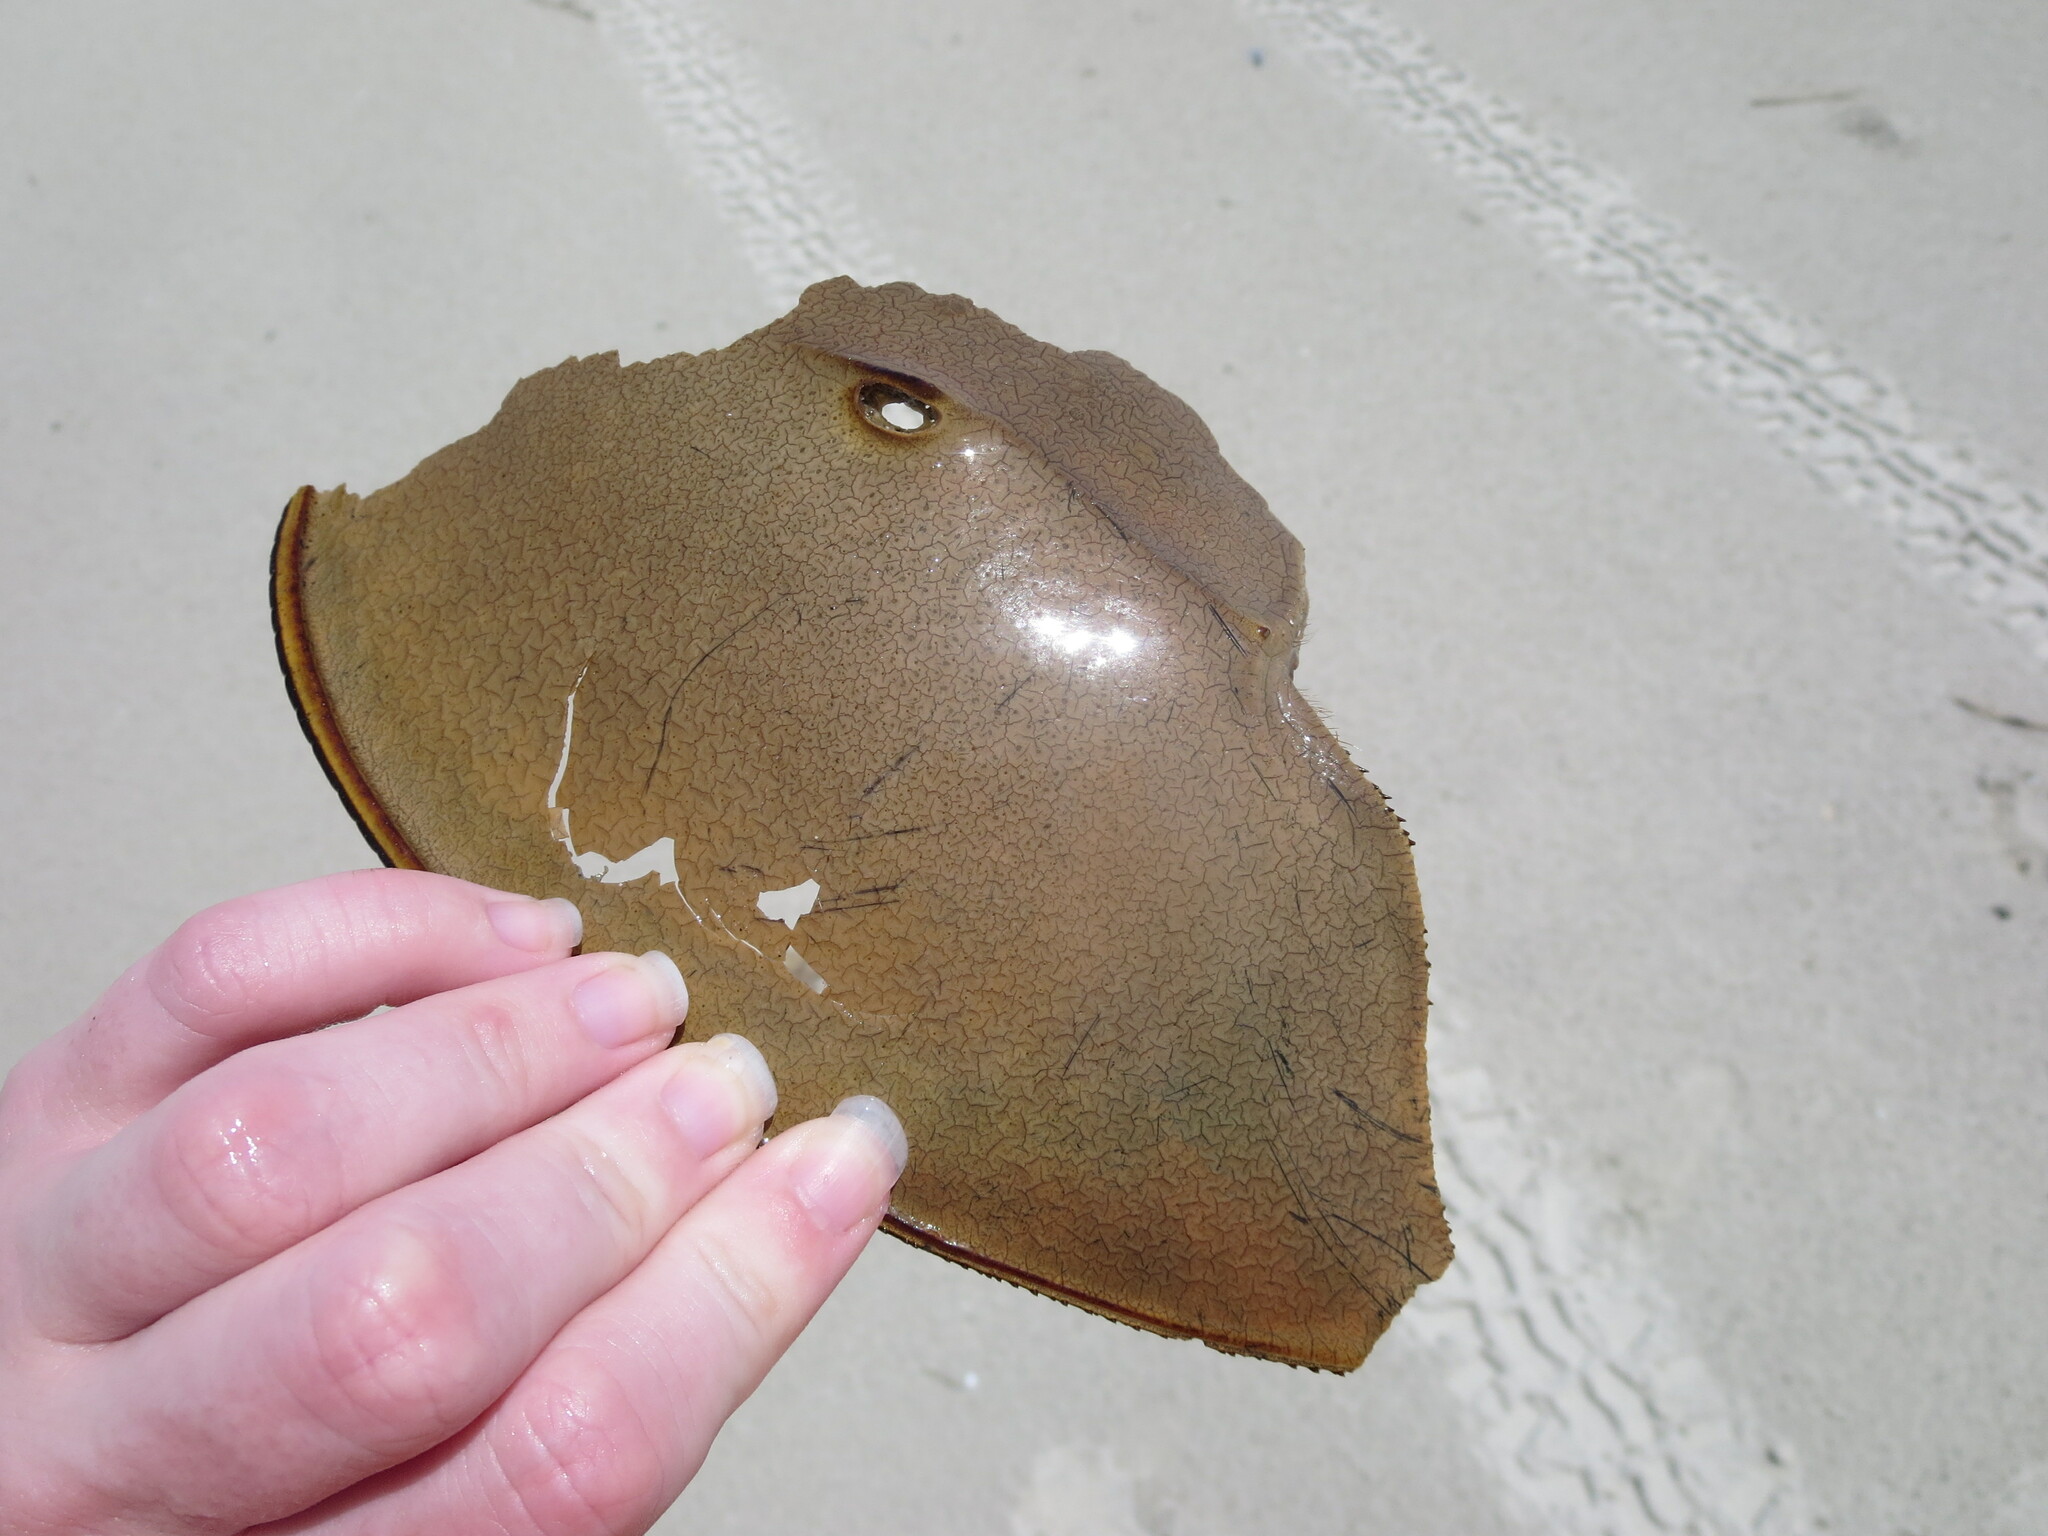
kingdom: Animalia
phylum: Arthropoda
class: Merostomata
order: Xiphosurida
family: Limulidae
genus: Limulus
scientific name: Limulus polyphemus
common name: Horseshoe crab
